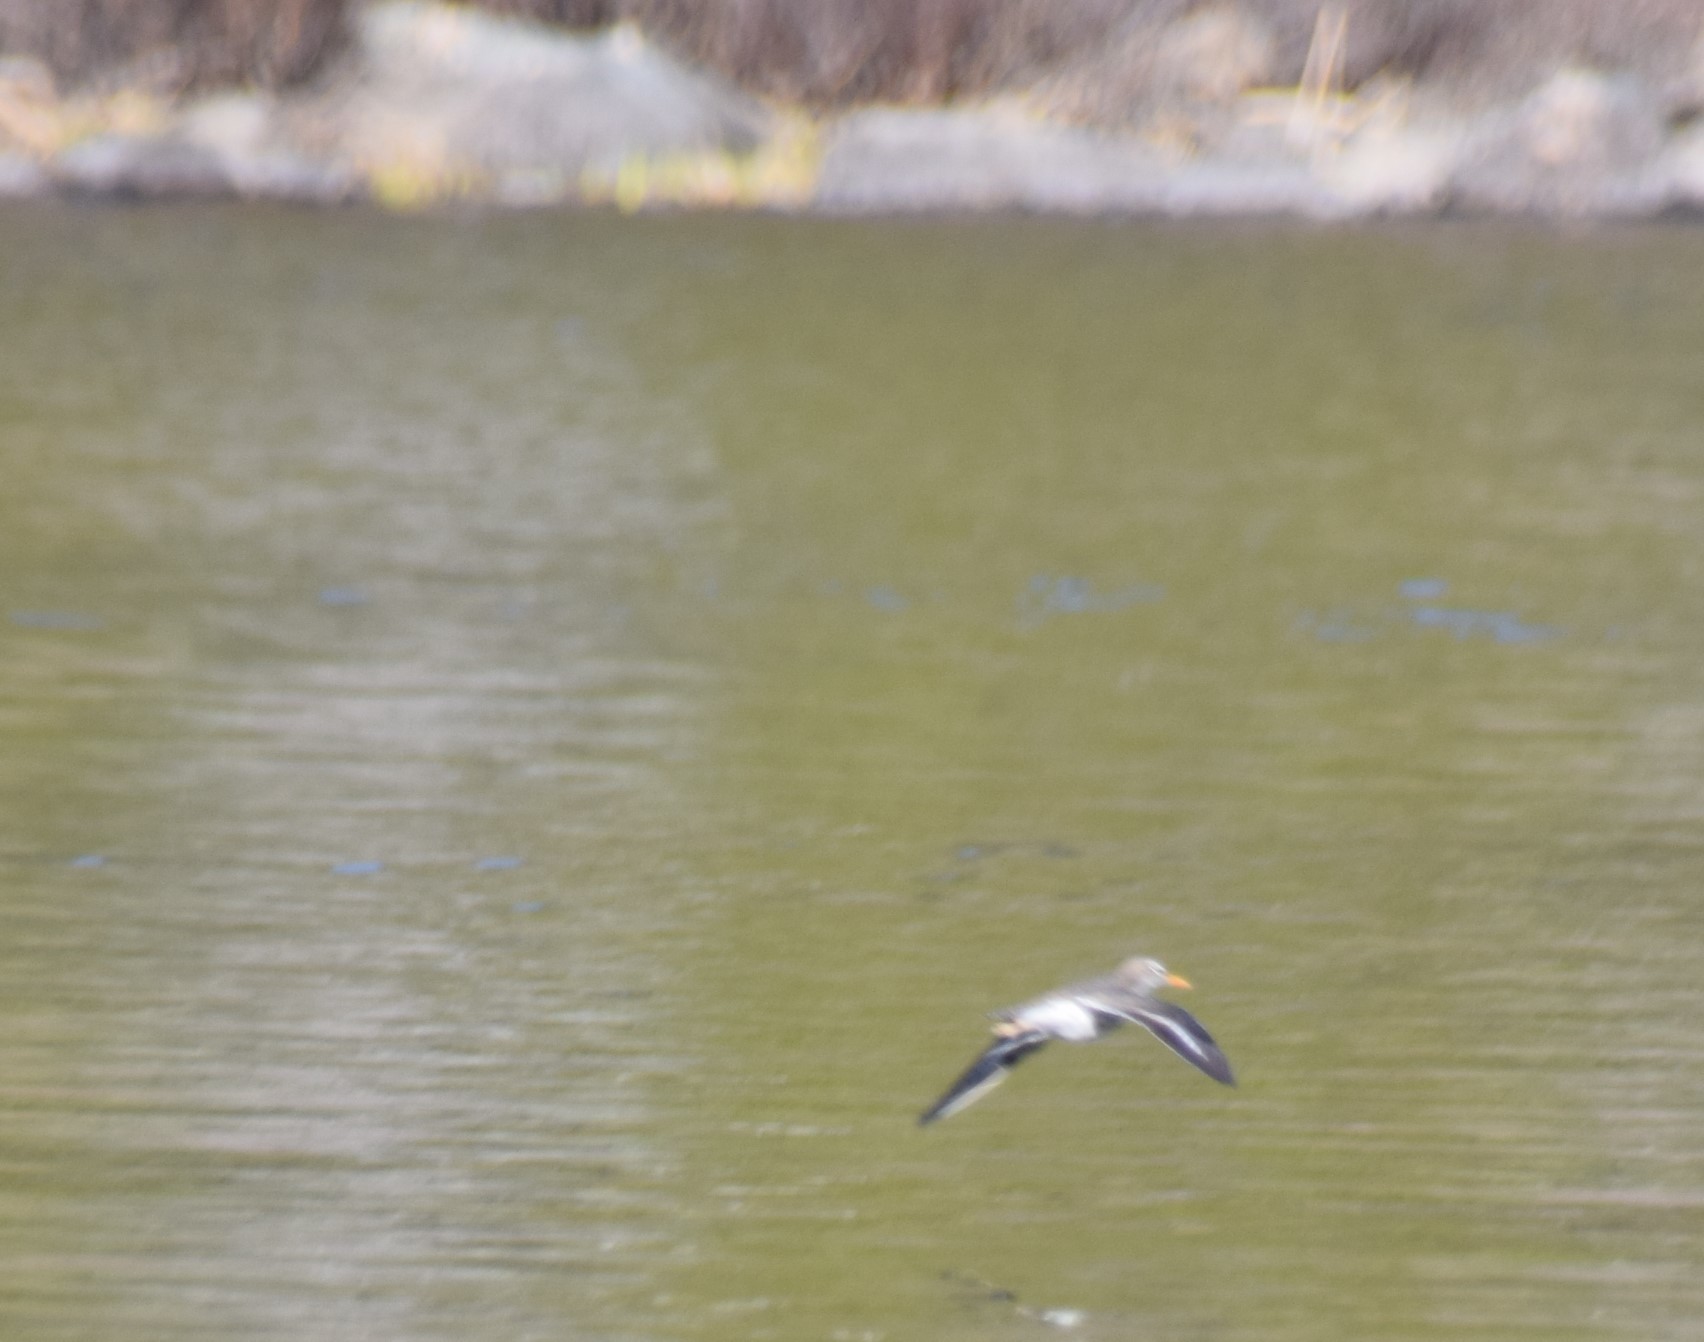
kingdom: Animalia
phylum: Chordata
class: Aves
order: Charadriiformes
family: Scolopacidae
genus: Actitis
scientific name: Actitis macularius
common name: Spotted sandpiper
